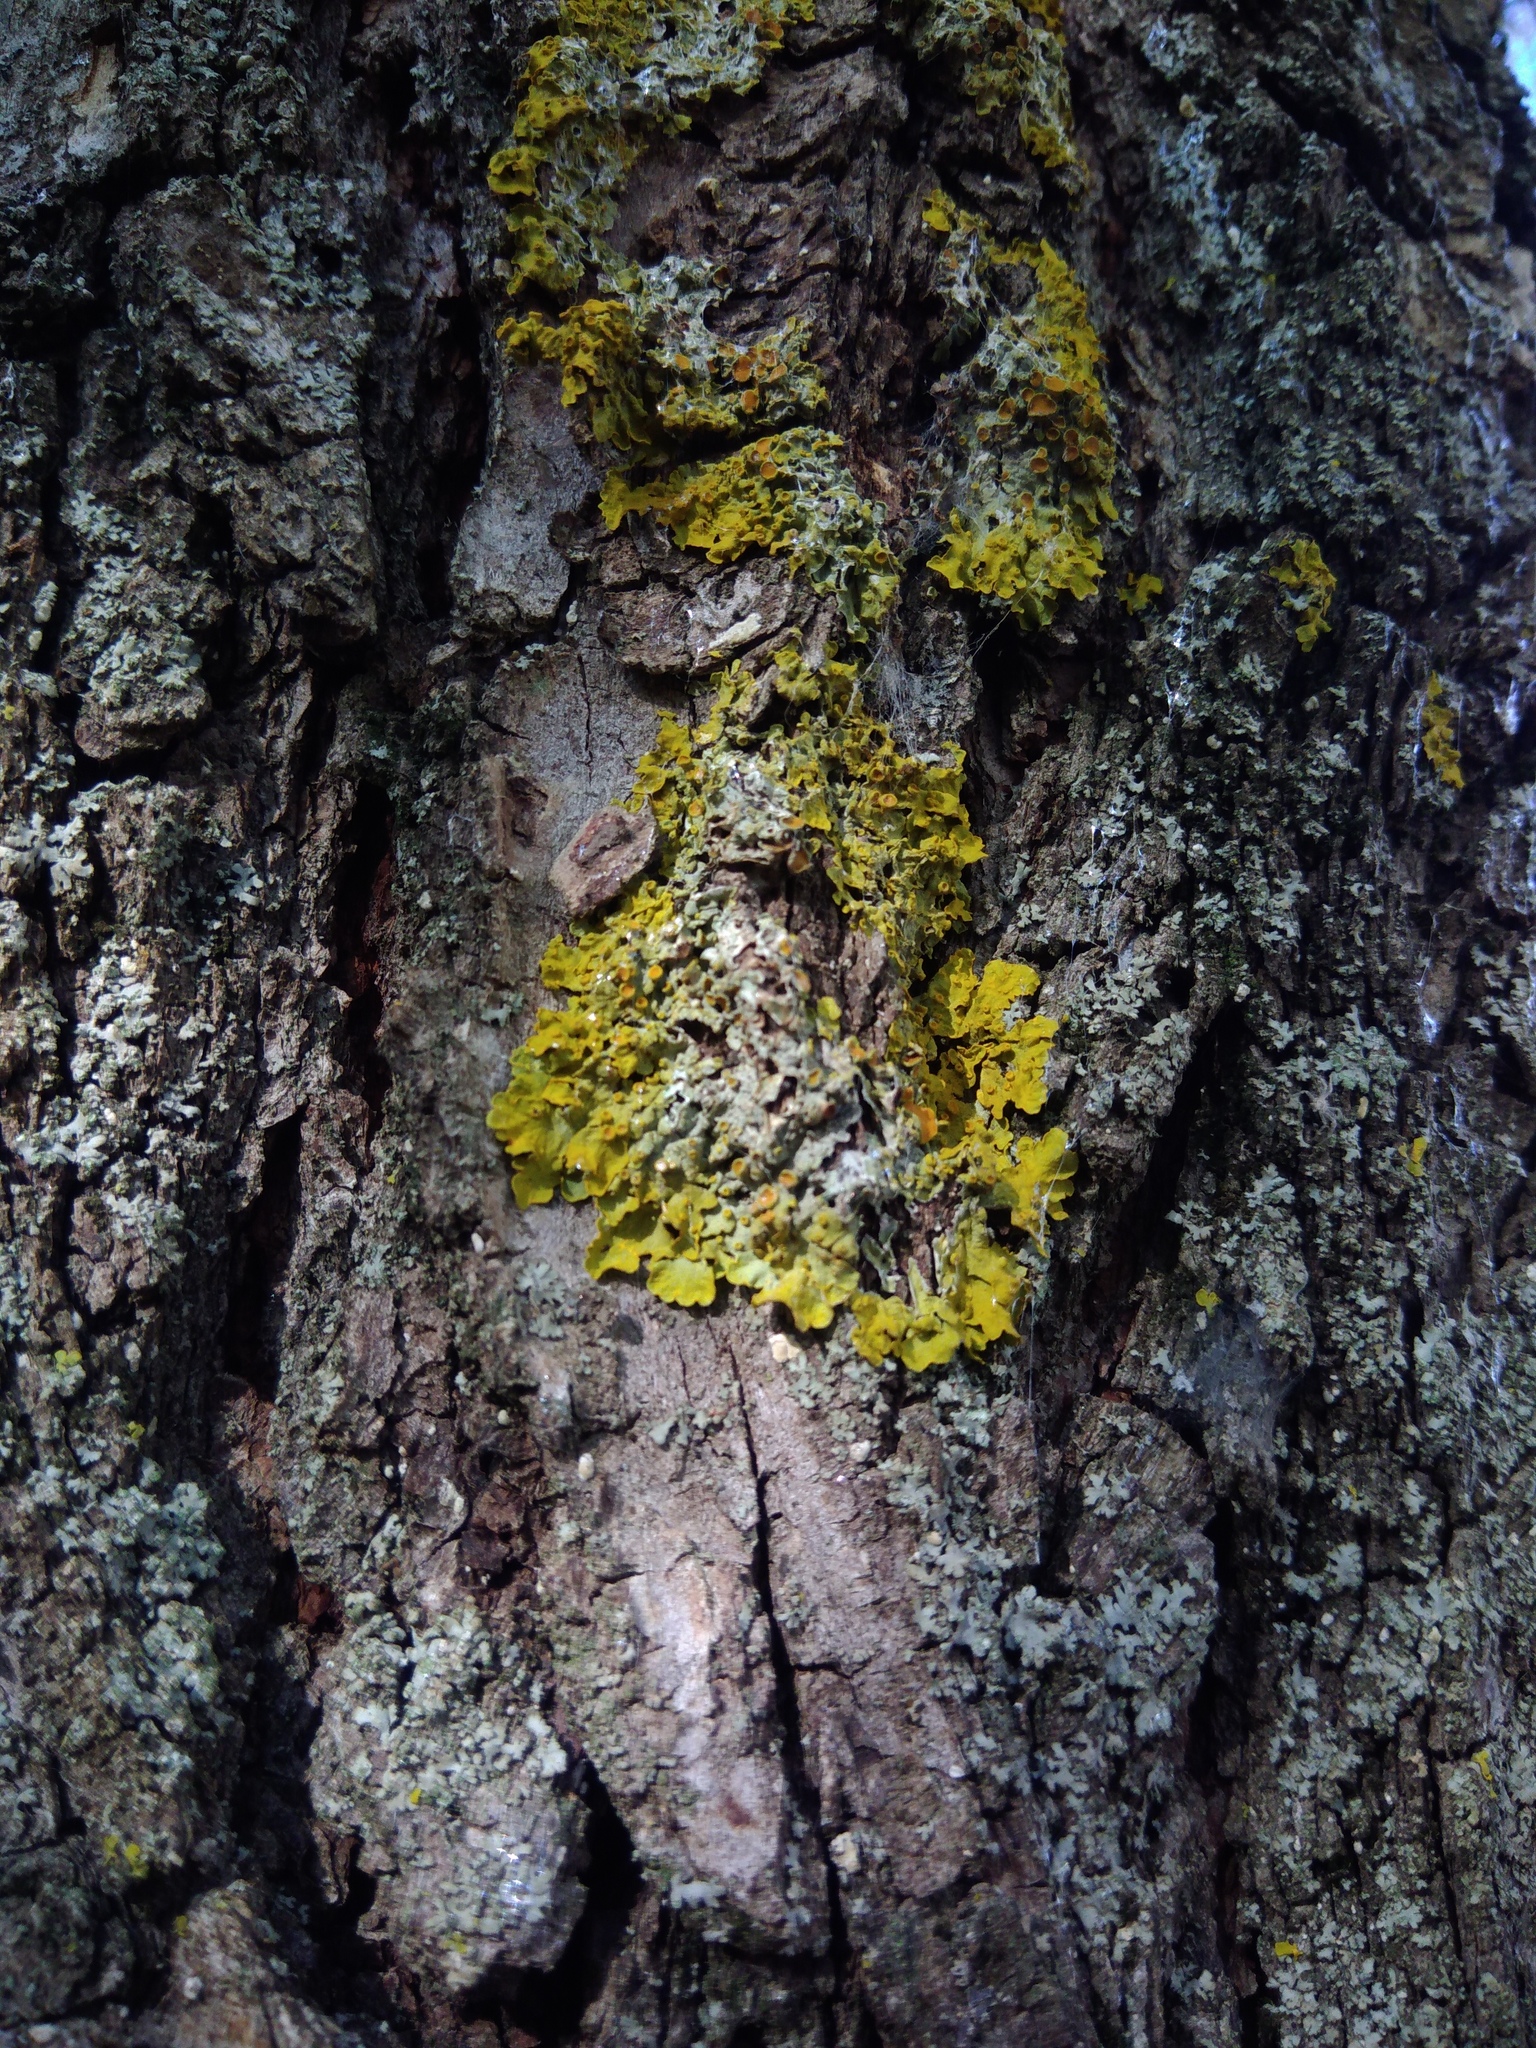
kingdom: Fungi
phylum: Ascomycota
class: Lecanoromycetes
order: Teloschistales
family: Teloschistaceae
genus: Xanthoria
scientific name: Xanthoria parietina
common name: Common orange lichen
